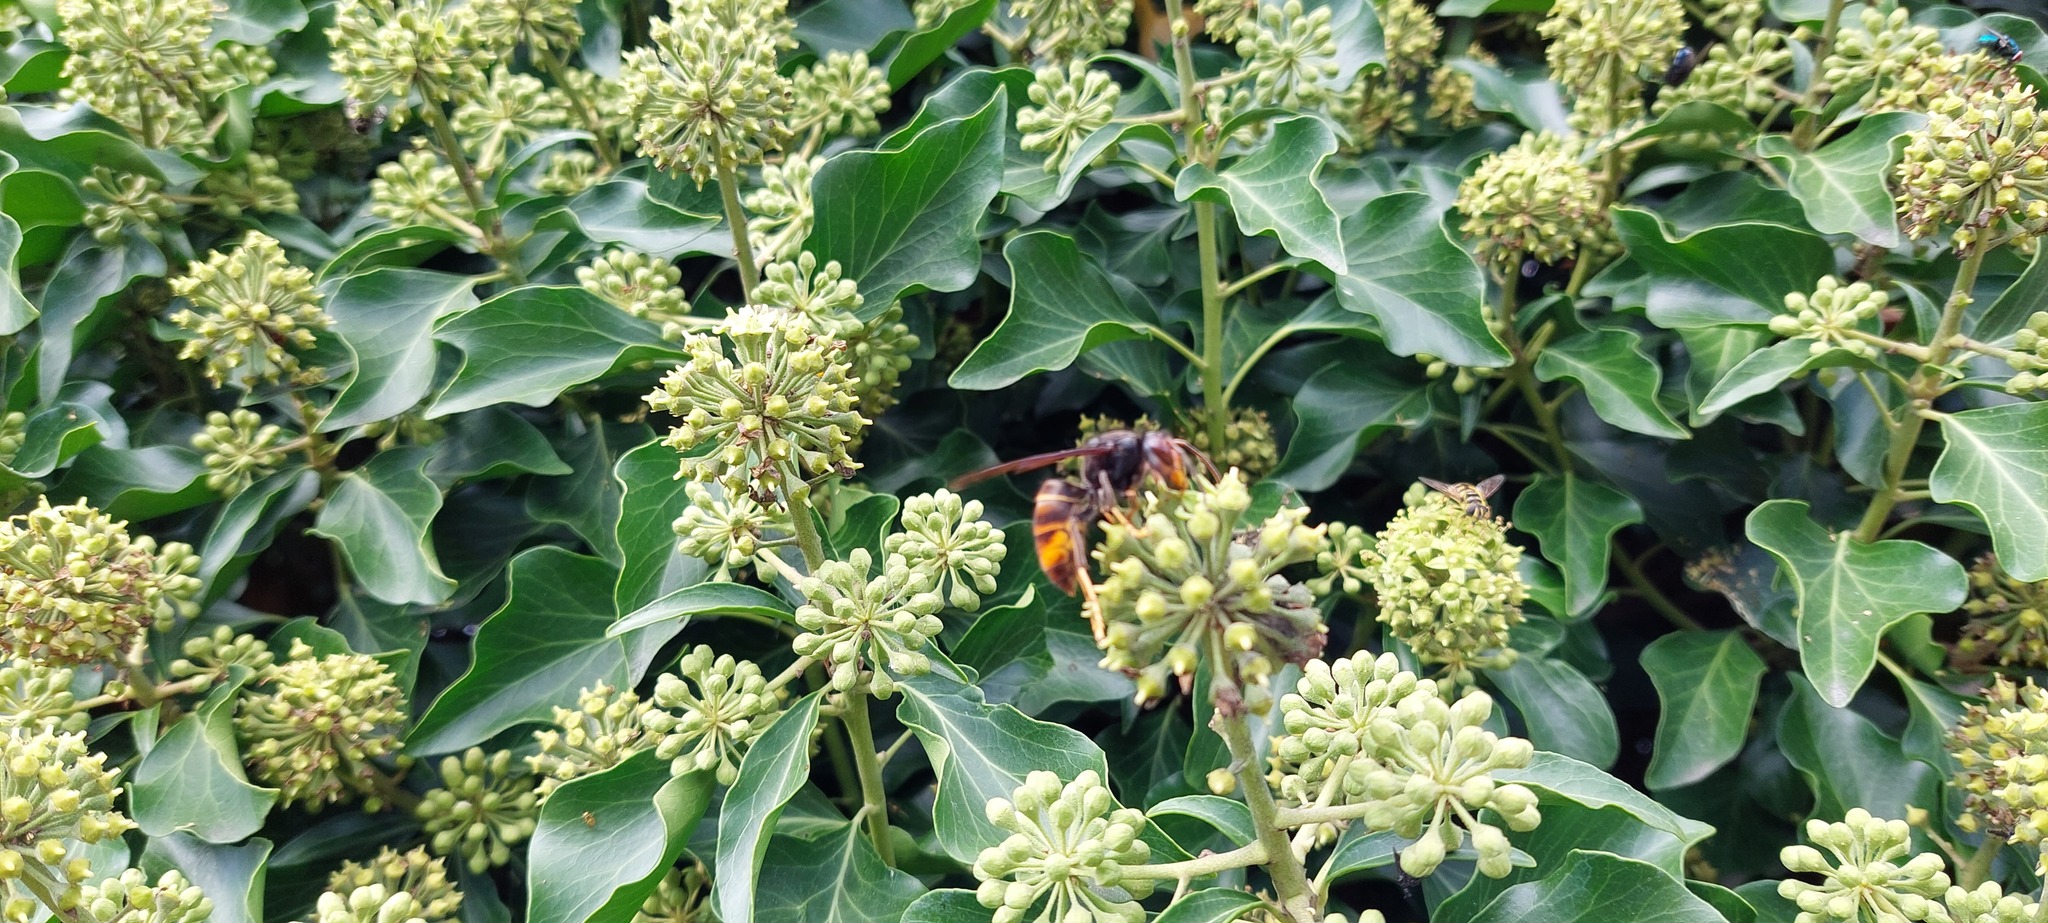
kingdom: Animalia
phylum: Arthropoda
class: Insecta
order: Hymenoptera
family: Vespidae
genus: Vespa
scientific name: Vespa velutina
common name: Asian hornet
